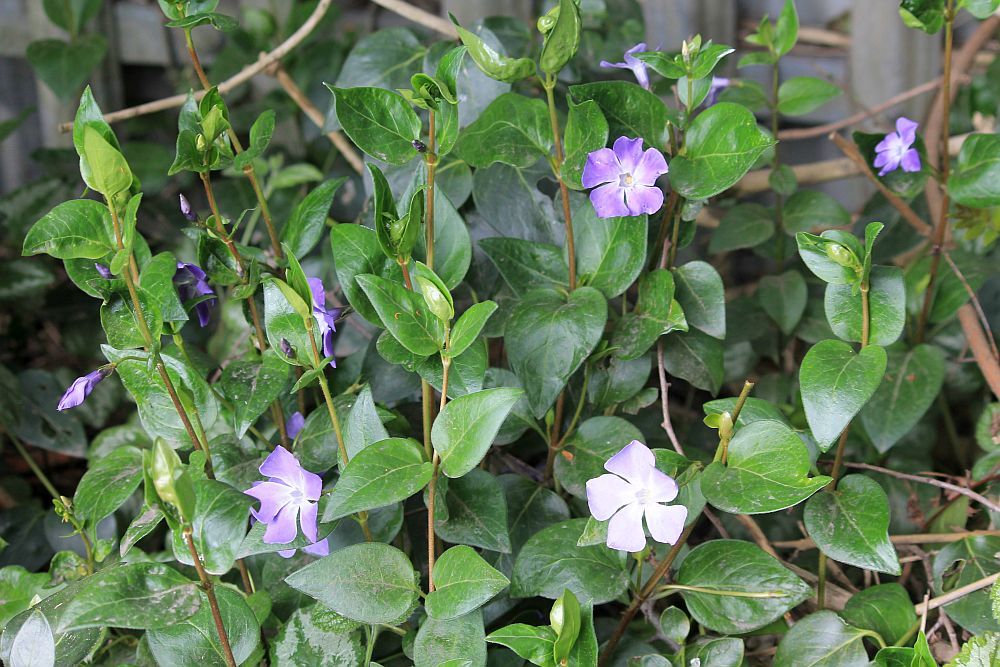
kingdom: Plantae
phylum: Tracheophyta
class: Magnoliopsida
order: Gentianales
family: Apocynaceae
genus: Vinca
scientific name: Vinca major
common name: Greater periwinkle
